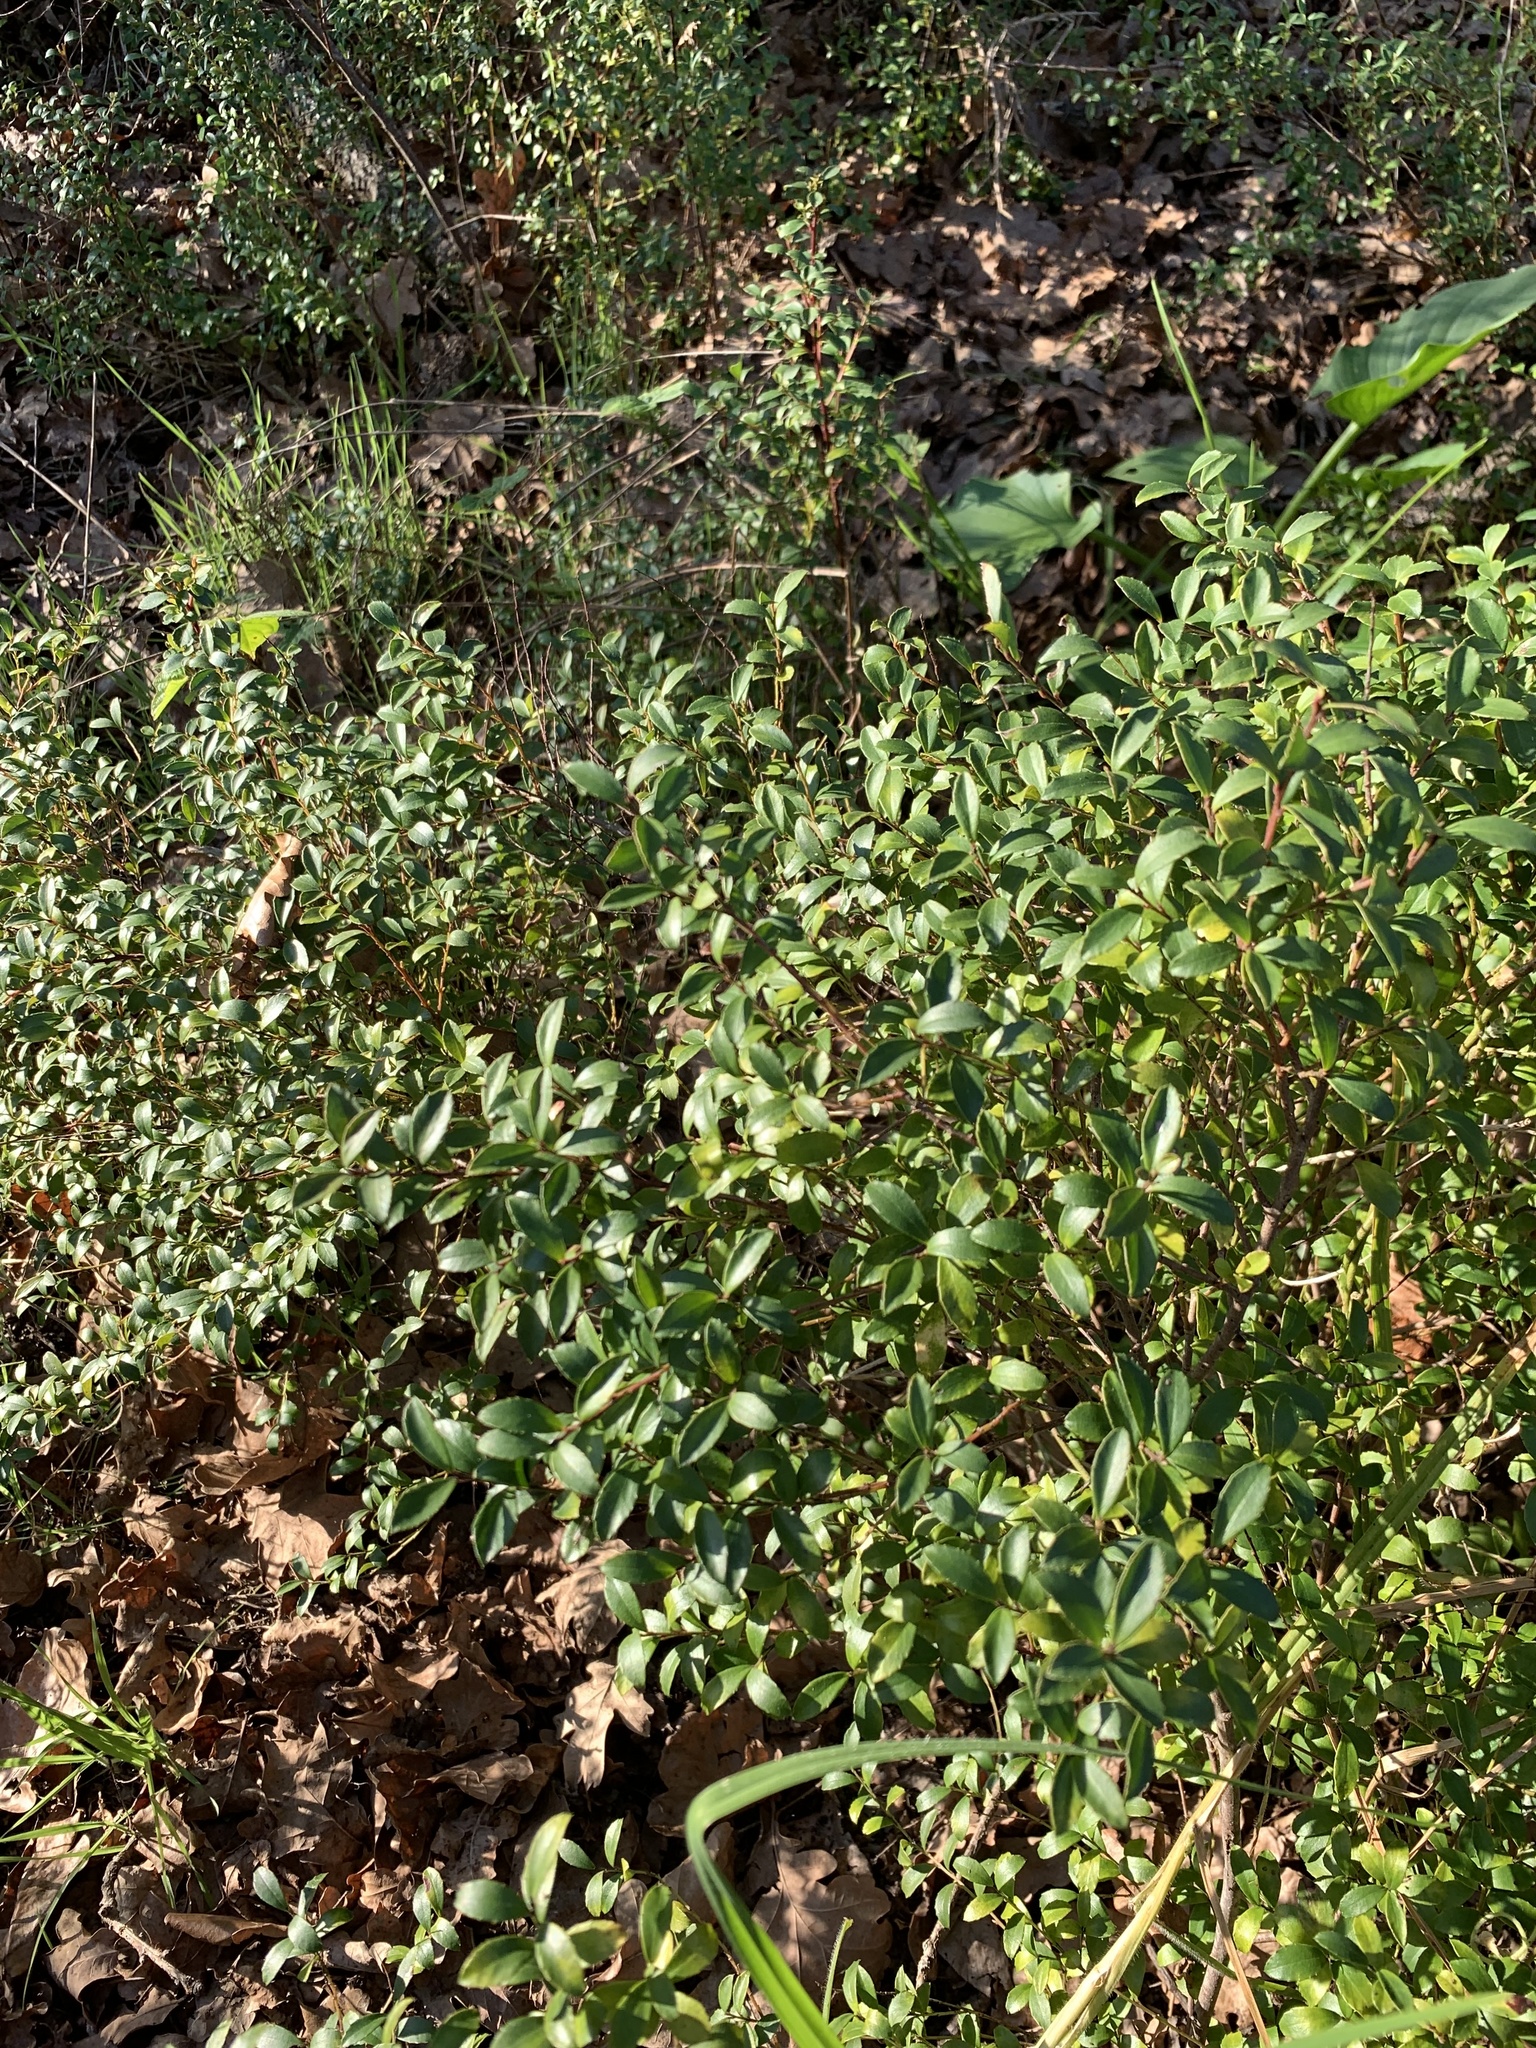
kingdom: Plantae
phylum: Tracheophyta
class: Magnoliopsida
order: Ericales
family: Primulaceae
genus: Myrsine
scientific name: Myrsine africana
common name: African-boxwood
